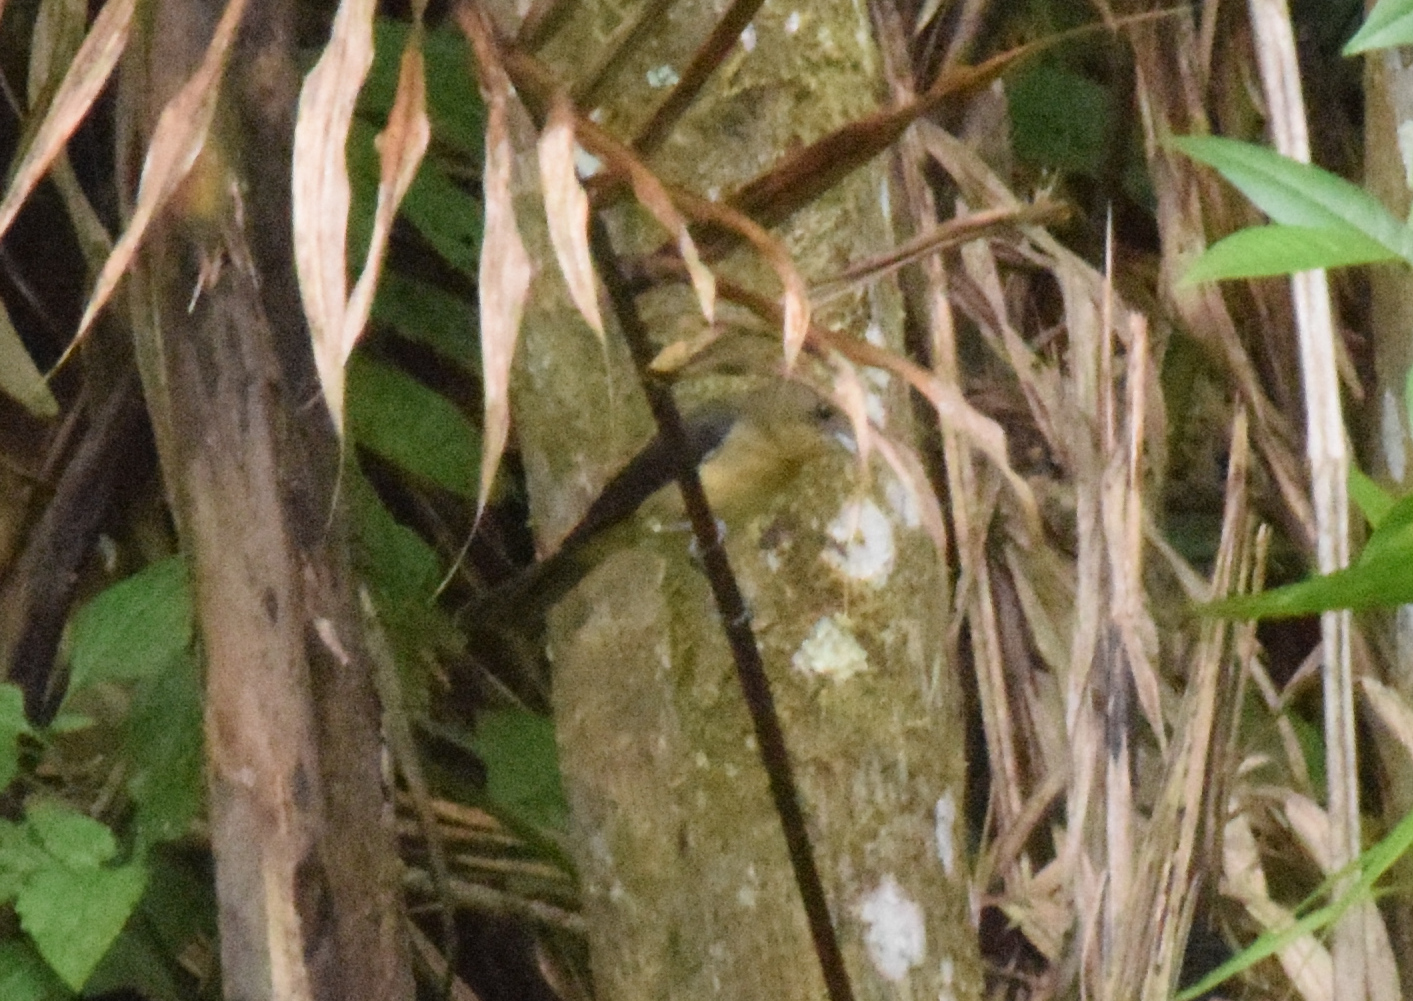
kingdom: Animalia
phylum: Chordata
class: Aves
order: Passeriformes
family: Thraupidae
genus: Trichothraupis
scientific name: Trichothraupis melanops
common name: Black-goggled tanager
